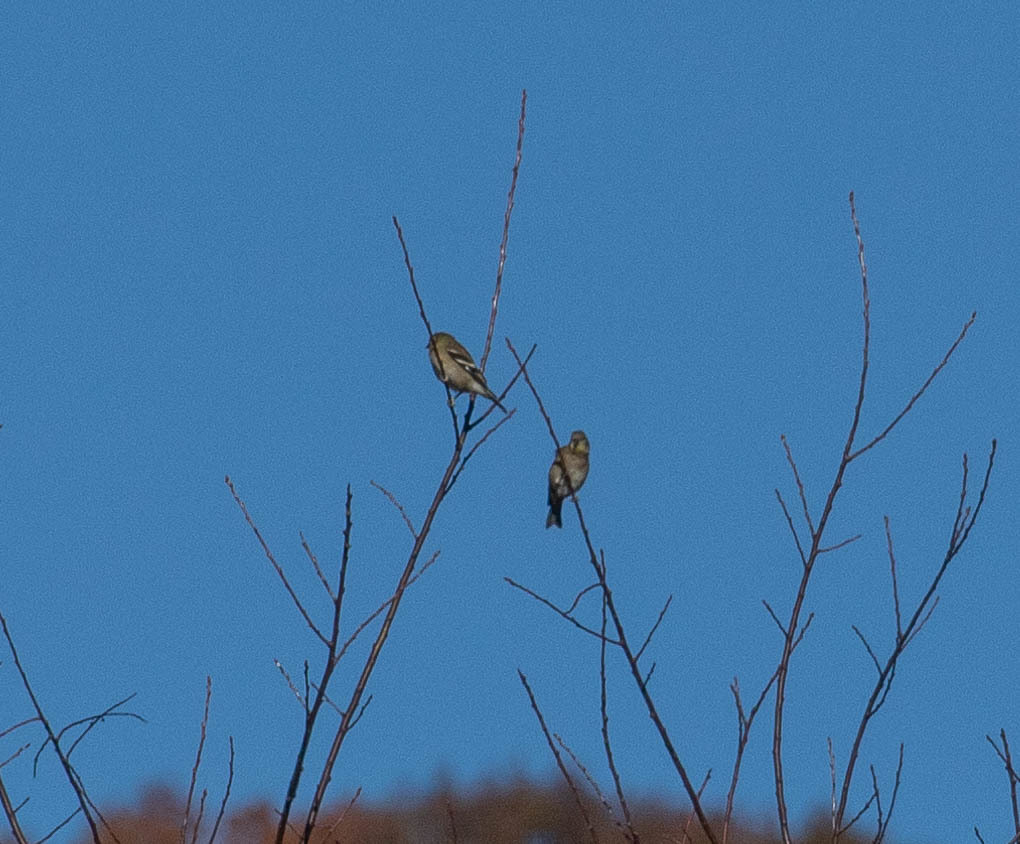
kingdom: Animalia
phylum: Chordata
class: Aves
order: Passeriformes
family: Fringillidae
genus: Spinus
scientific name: Spinus tristis
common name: American goldfinch
